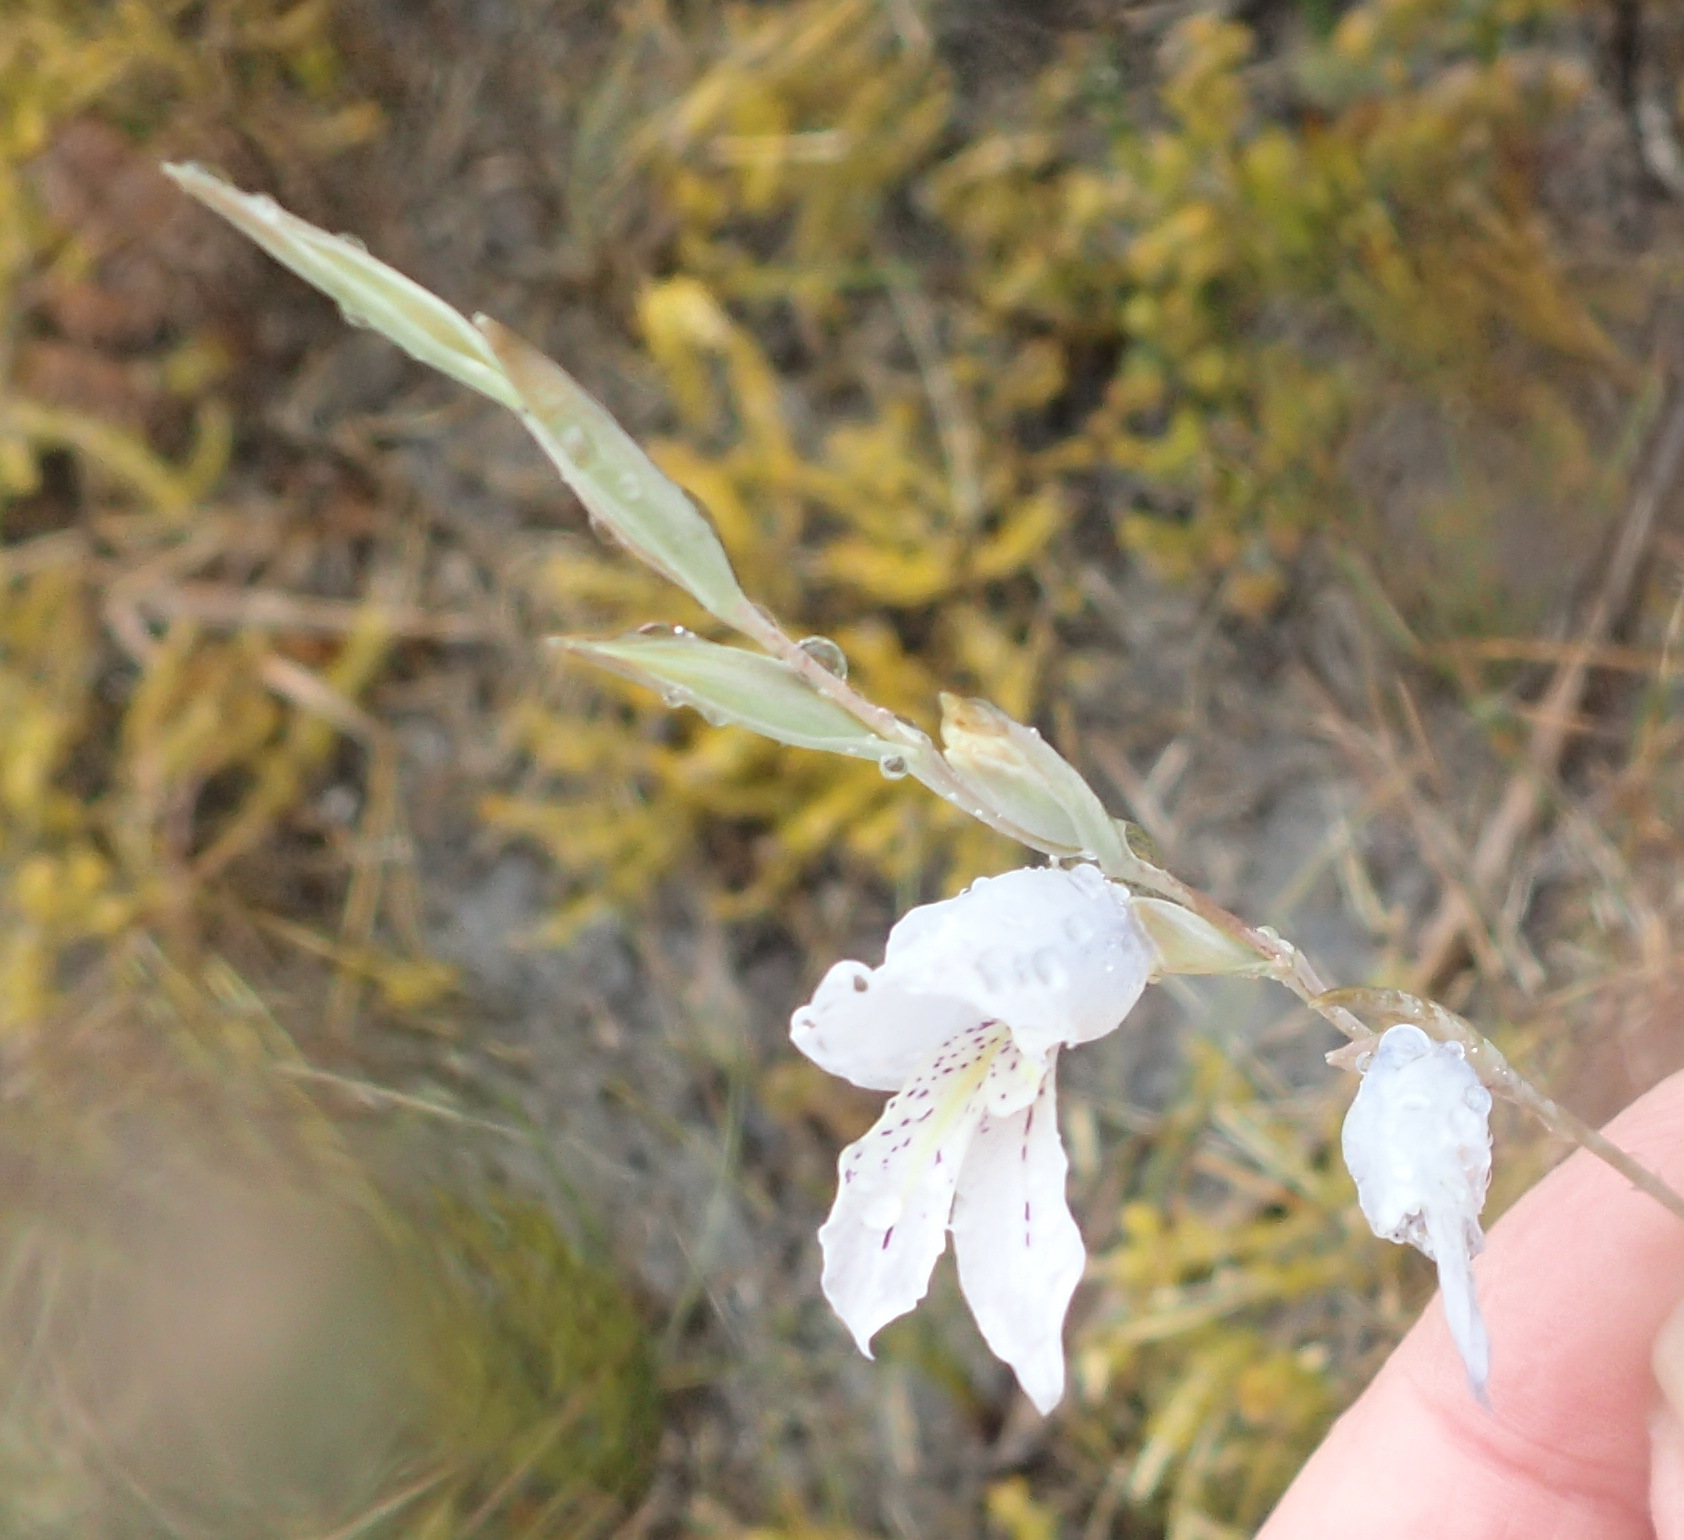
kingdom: Plantae
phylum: Tracheophyta
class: Liliopsida
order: Asparagales
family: Iridaceae
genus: Gladiolus
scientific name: Gladiolus vaginatus
